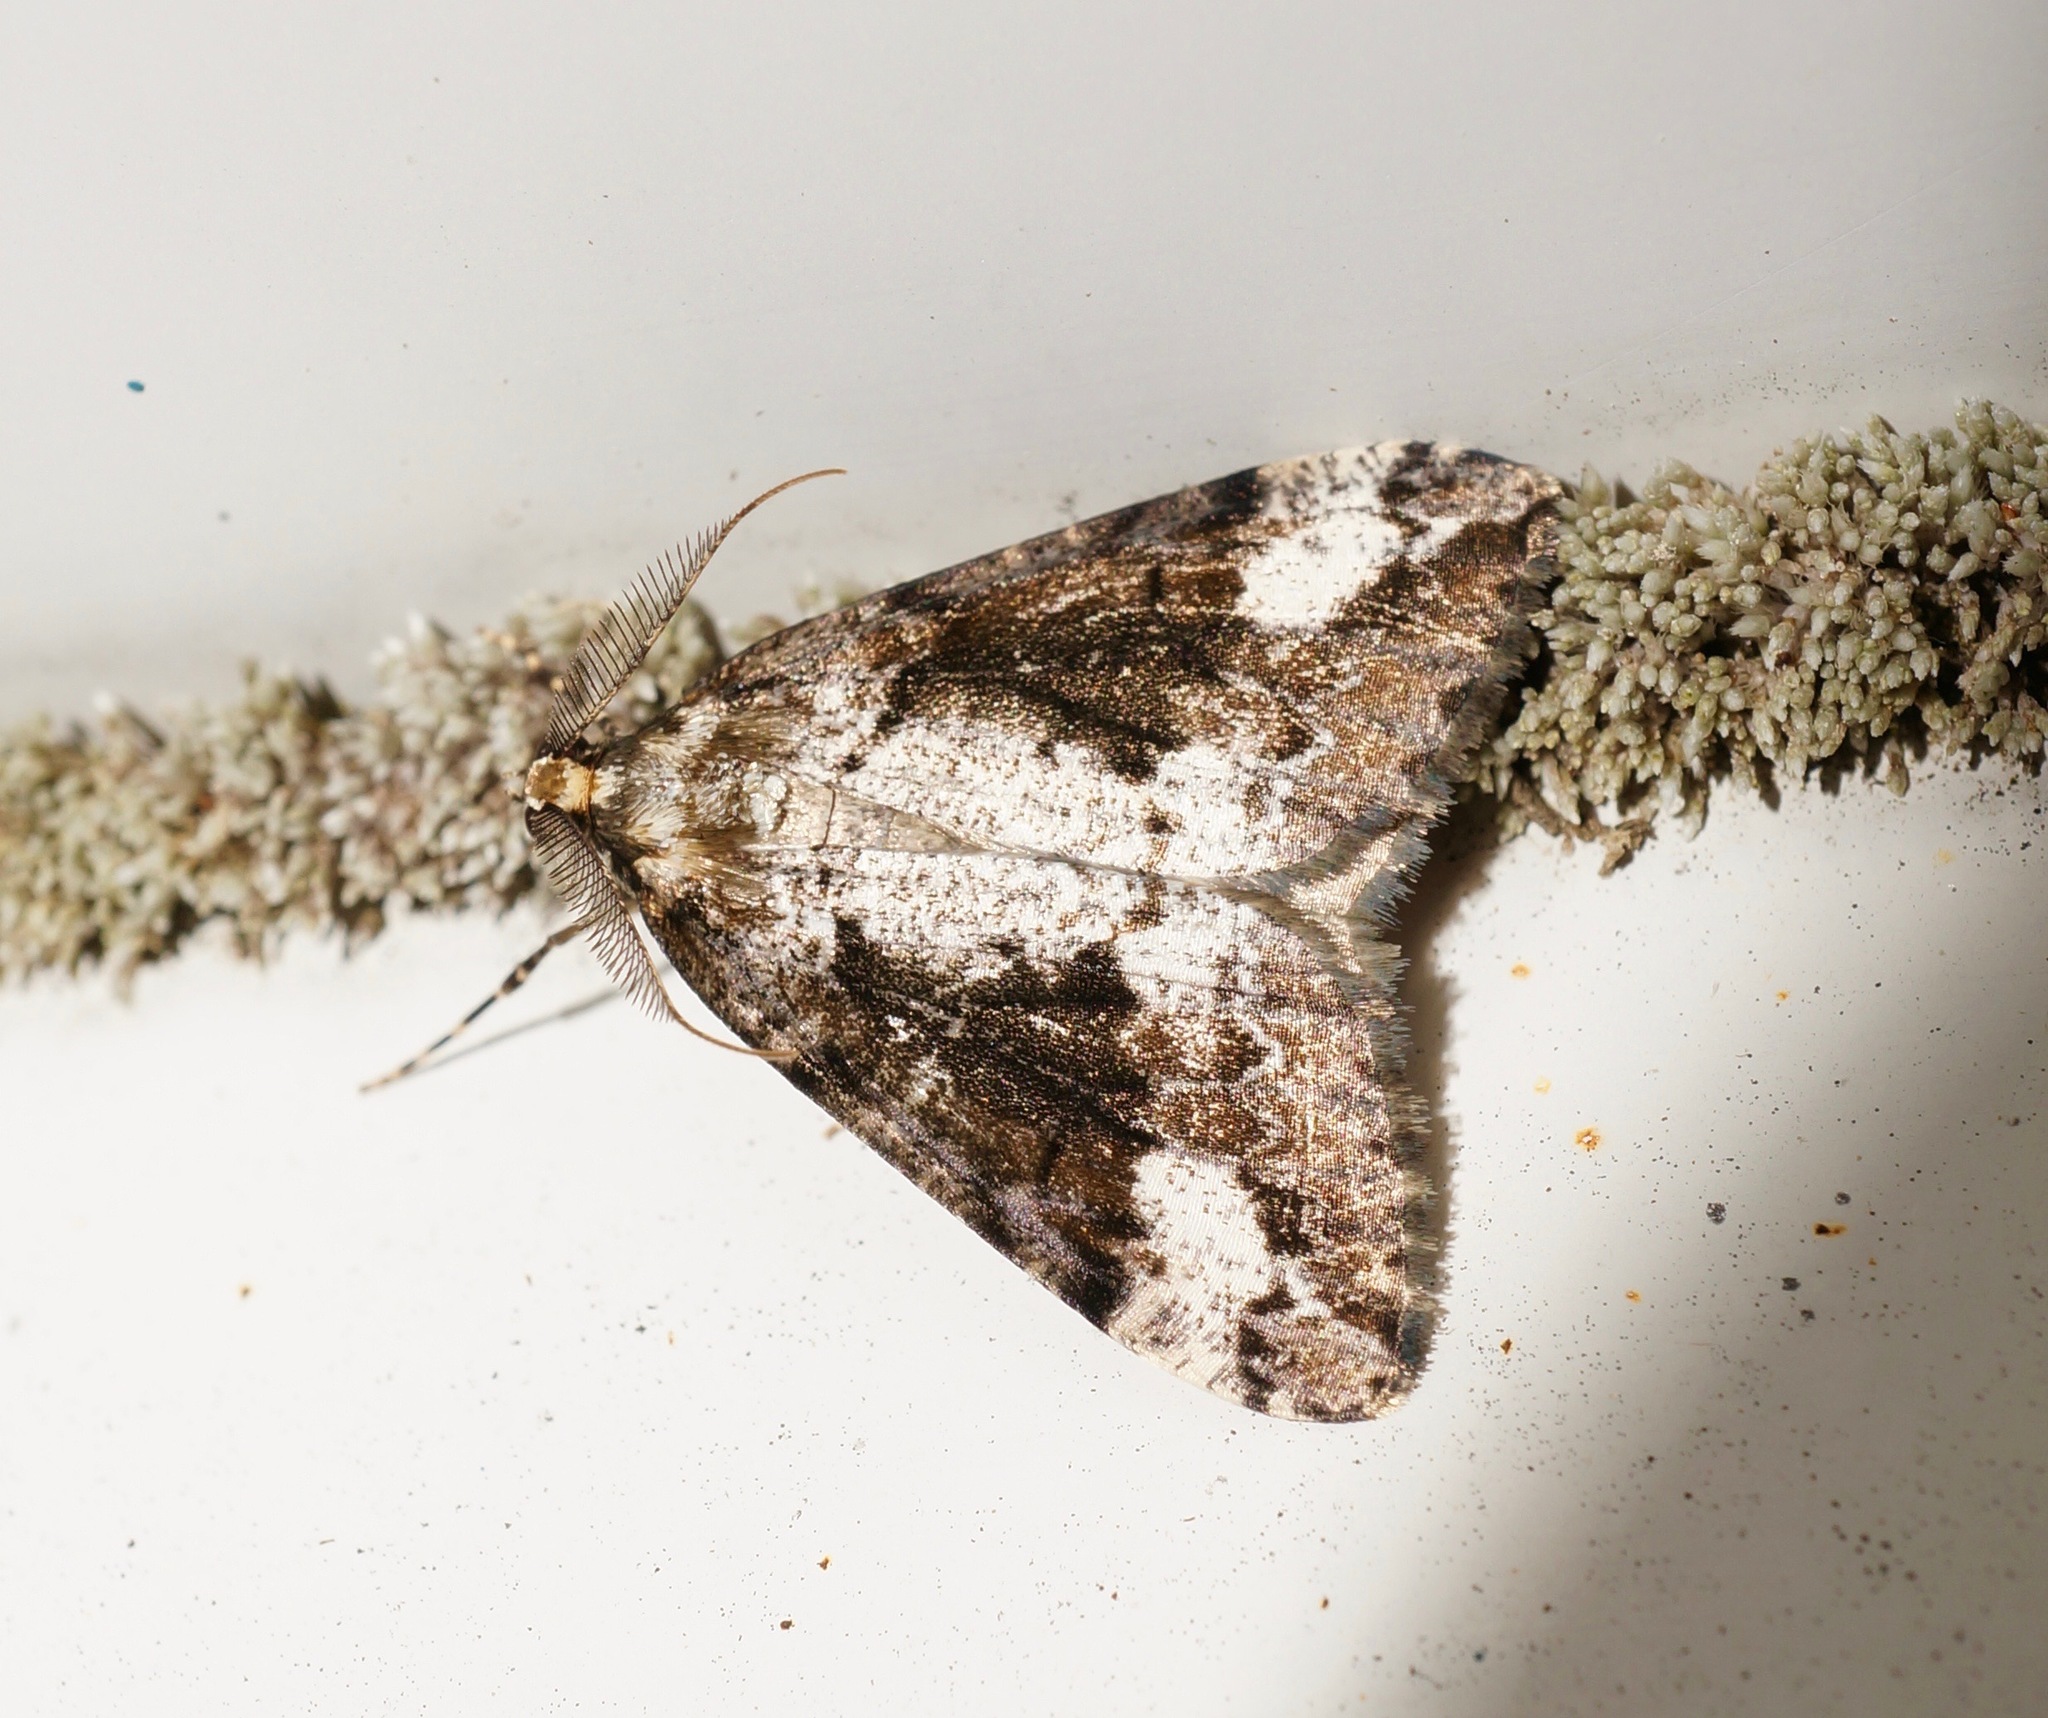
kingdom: Animalia
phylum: Arthropoda
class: Insecta
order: Lepidoptera
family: Geometridae
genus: Pseudocoremia
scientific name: Pseudocoremia leucelaea
